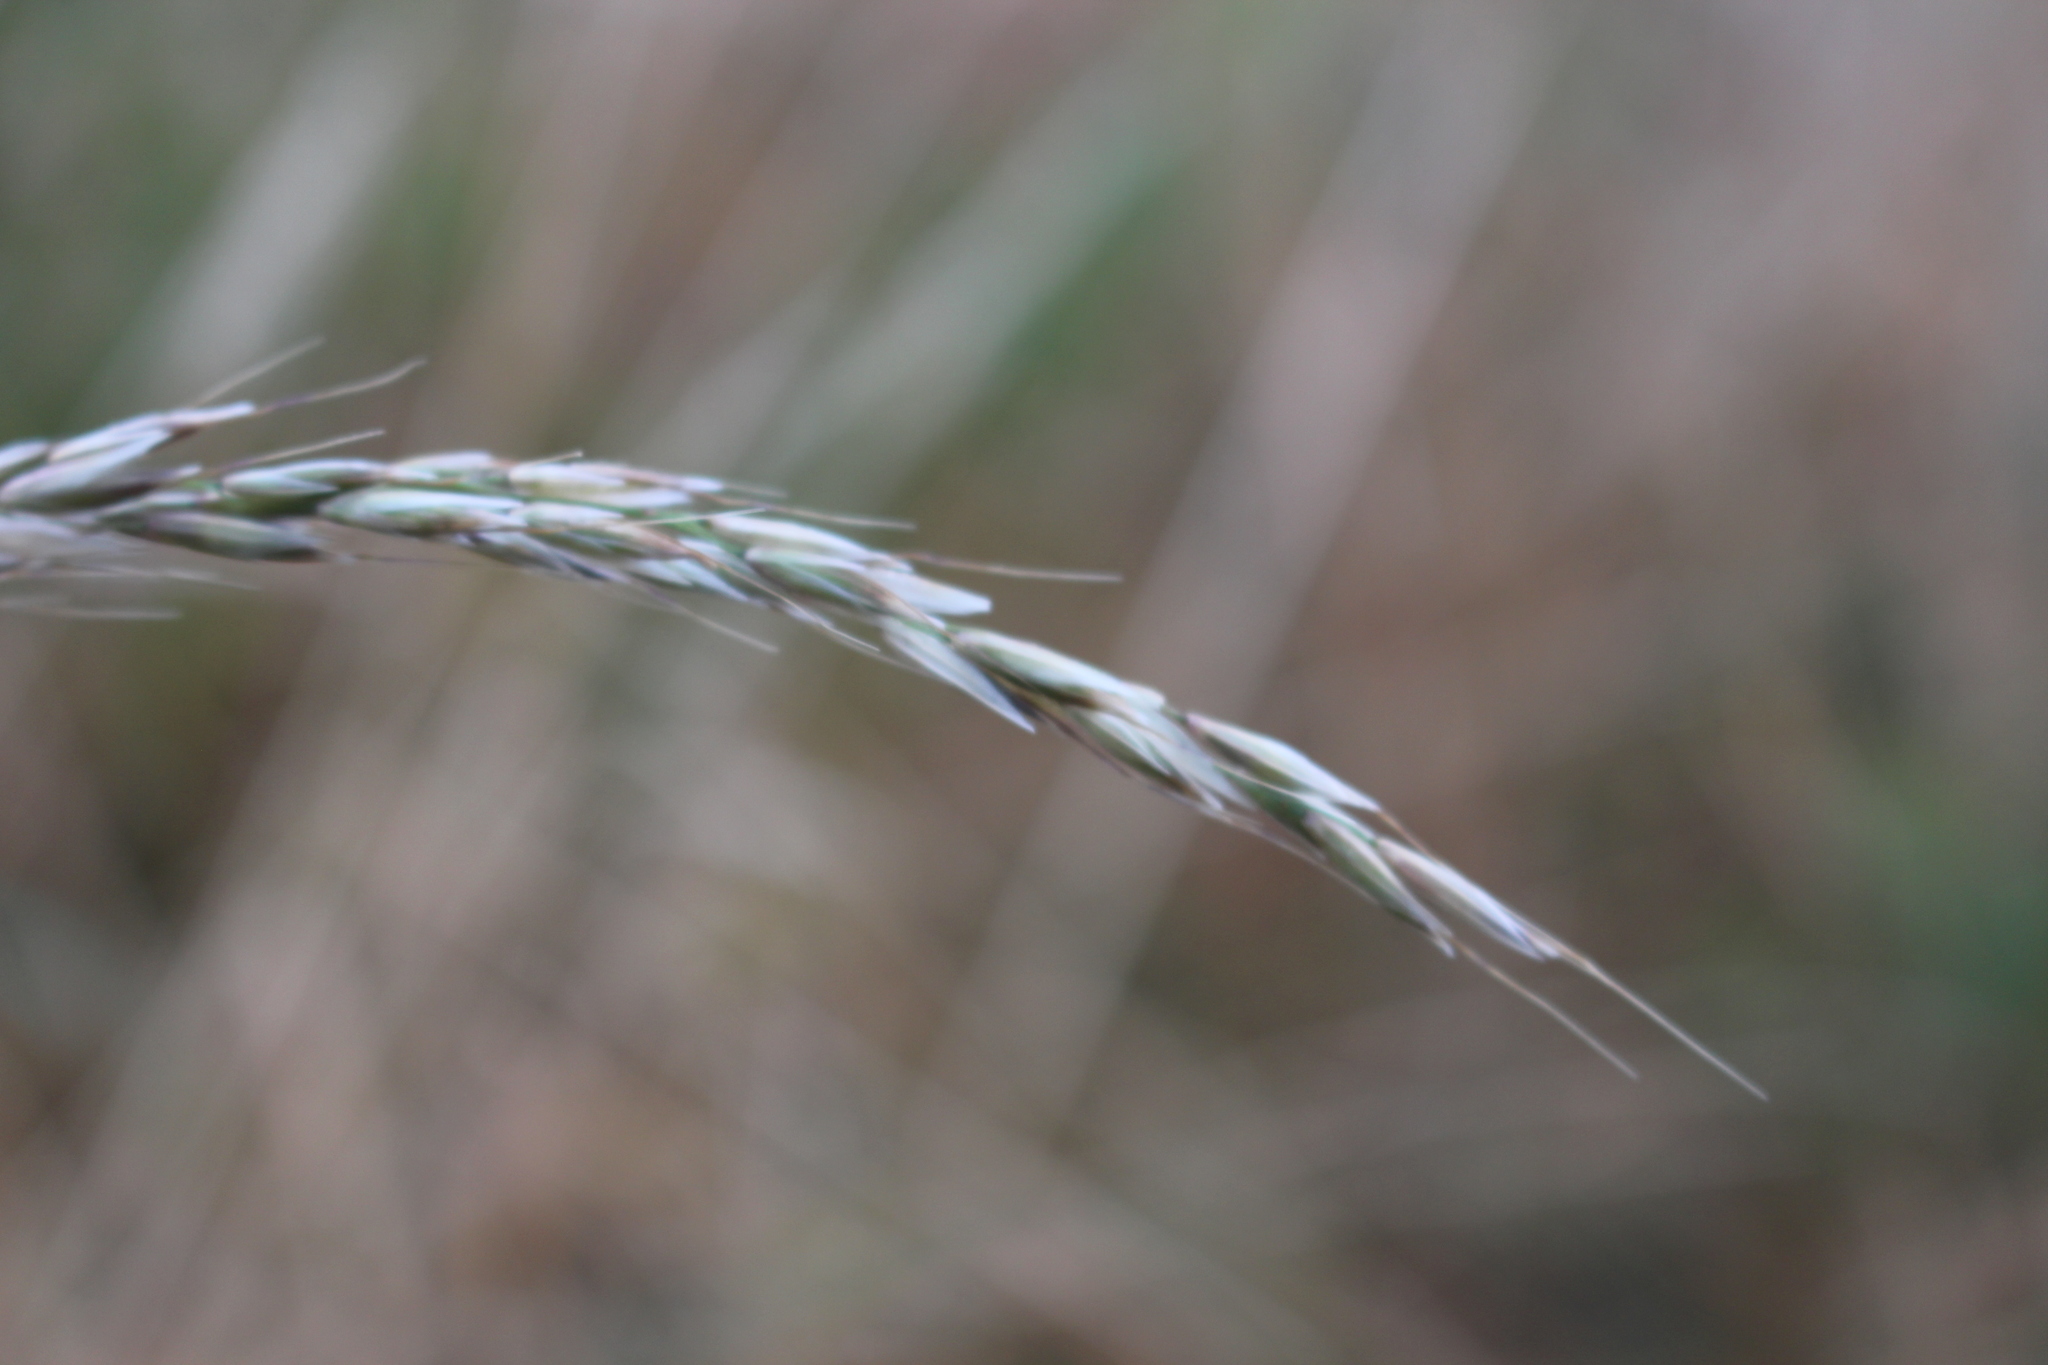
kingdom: Plantae
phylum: Tracheophyta
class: Liliopsida
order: Poales
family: Poaceae
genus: Arrhenatherum
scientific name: Arrhenatherum elatius
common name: Tall oatgrass
